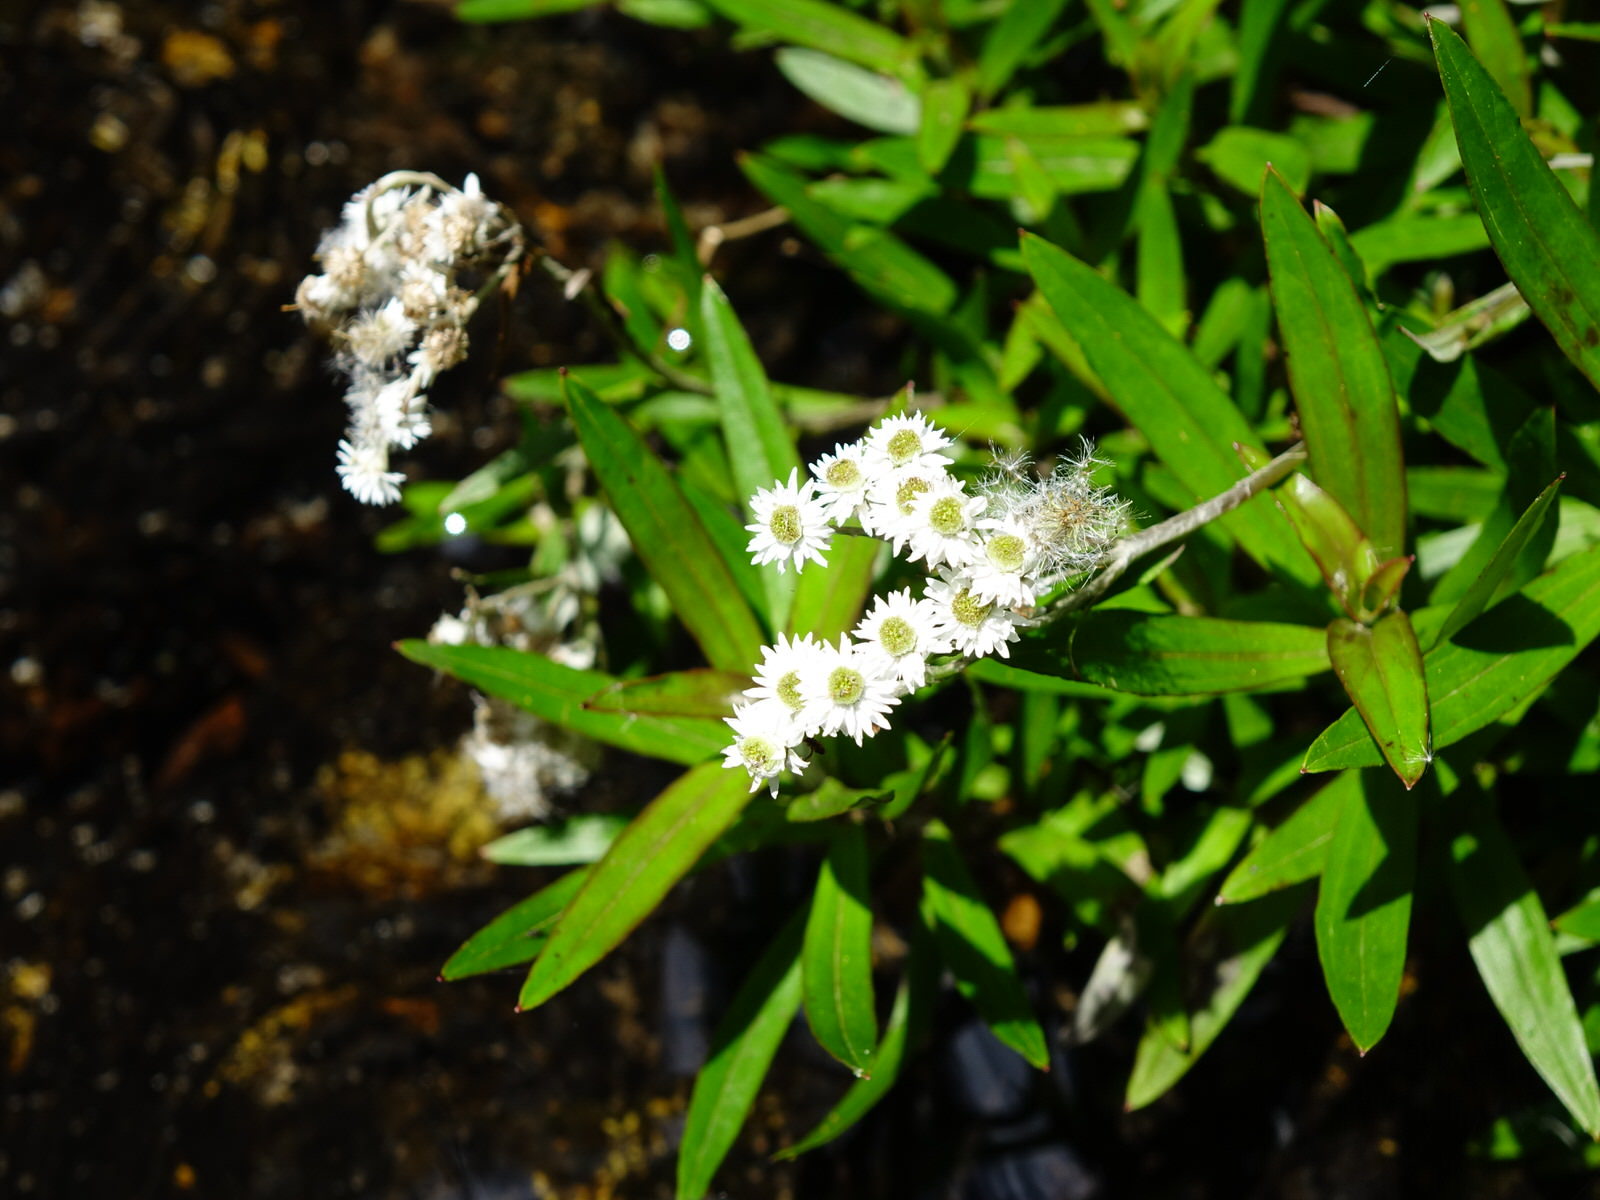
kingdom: Plantae
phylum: Tracheophyta
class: Magnoliopsida
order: Asterales
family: Asteraceae
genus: Anaphalioides
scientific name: Anaphalioides trinervis
